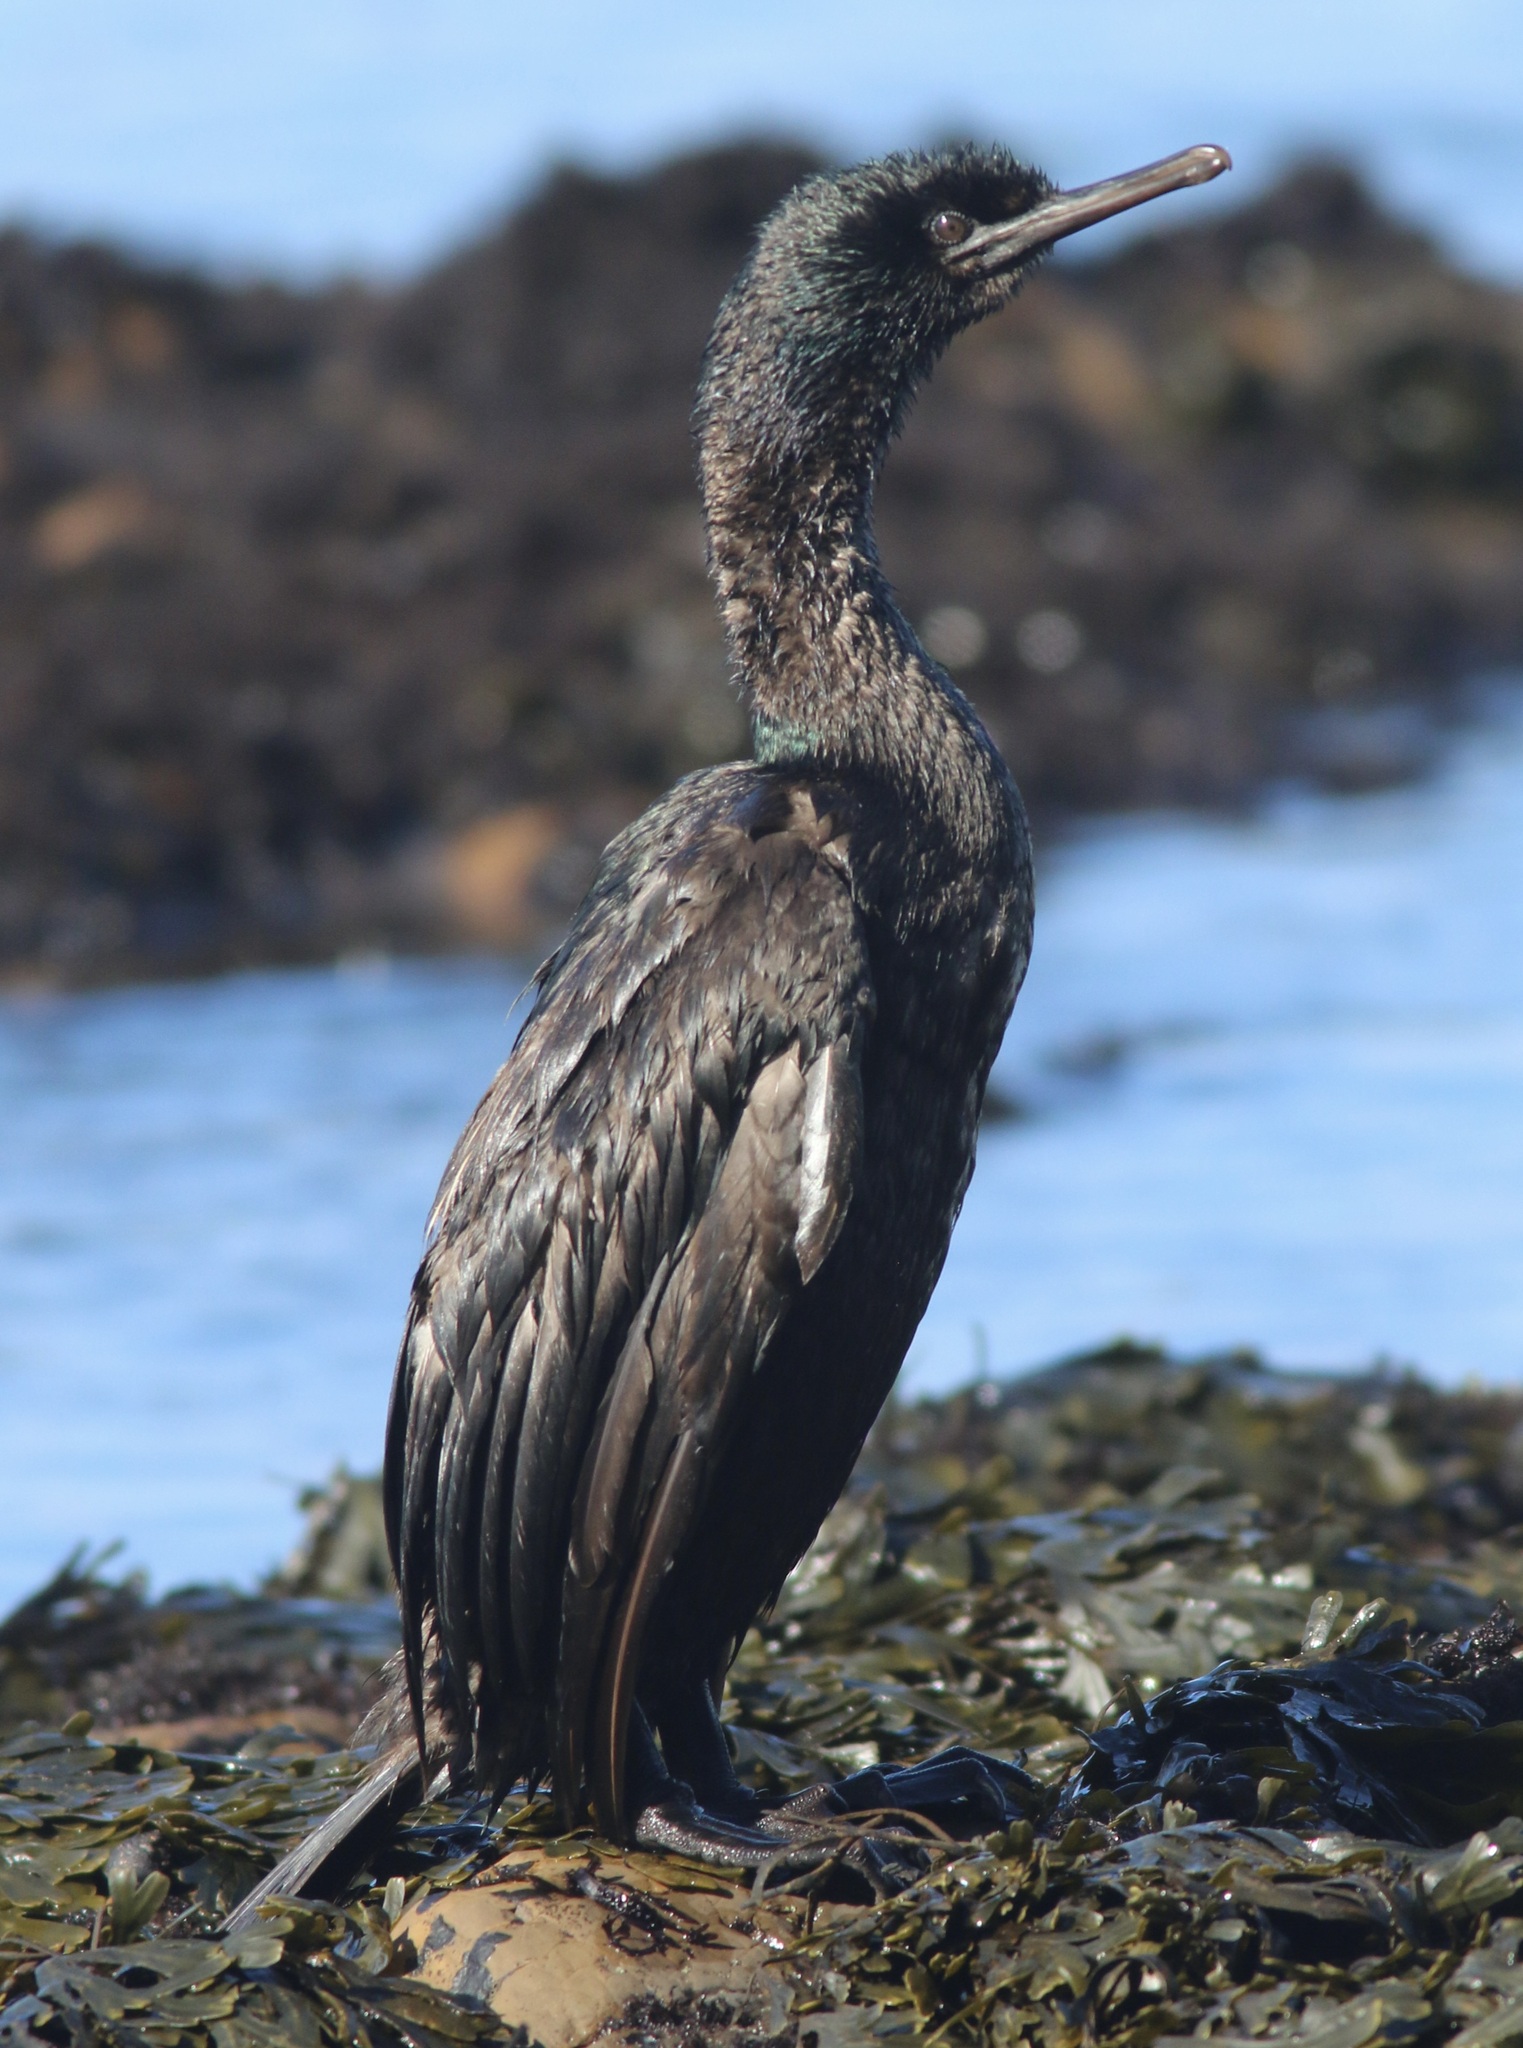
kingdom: Animalia
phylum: Chordata
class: Aves
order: Suliformes
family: Phalacrocoracidae
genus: Phalacrocorax
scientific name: Phalacrocorax pelagicus
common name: Pelagic cormorant
